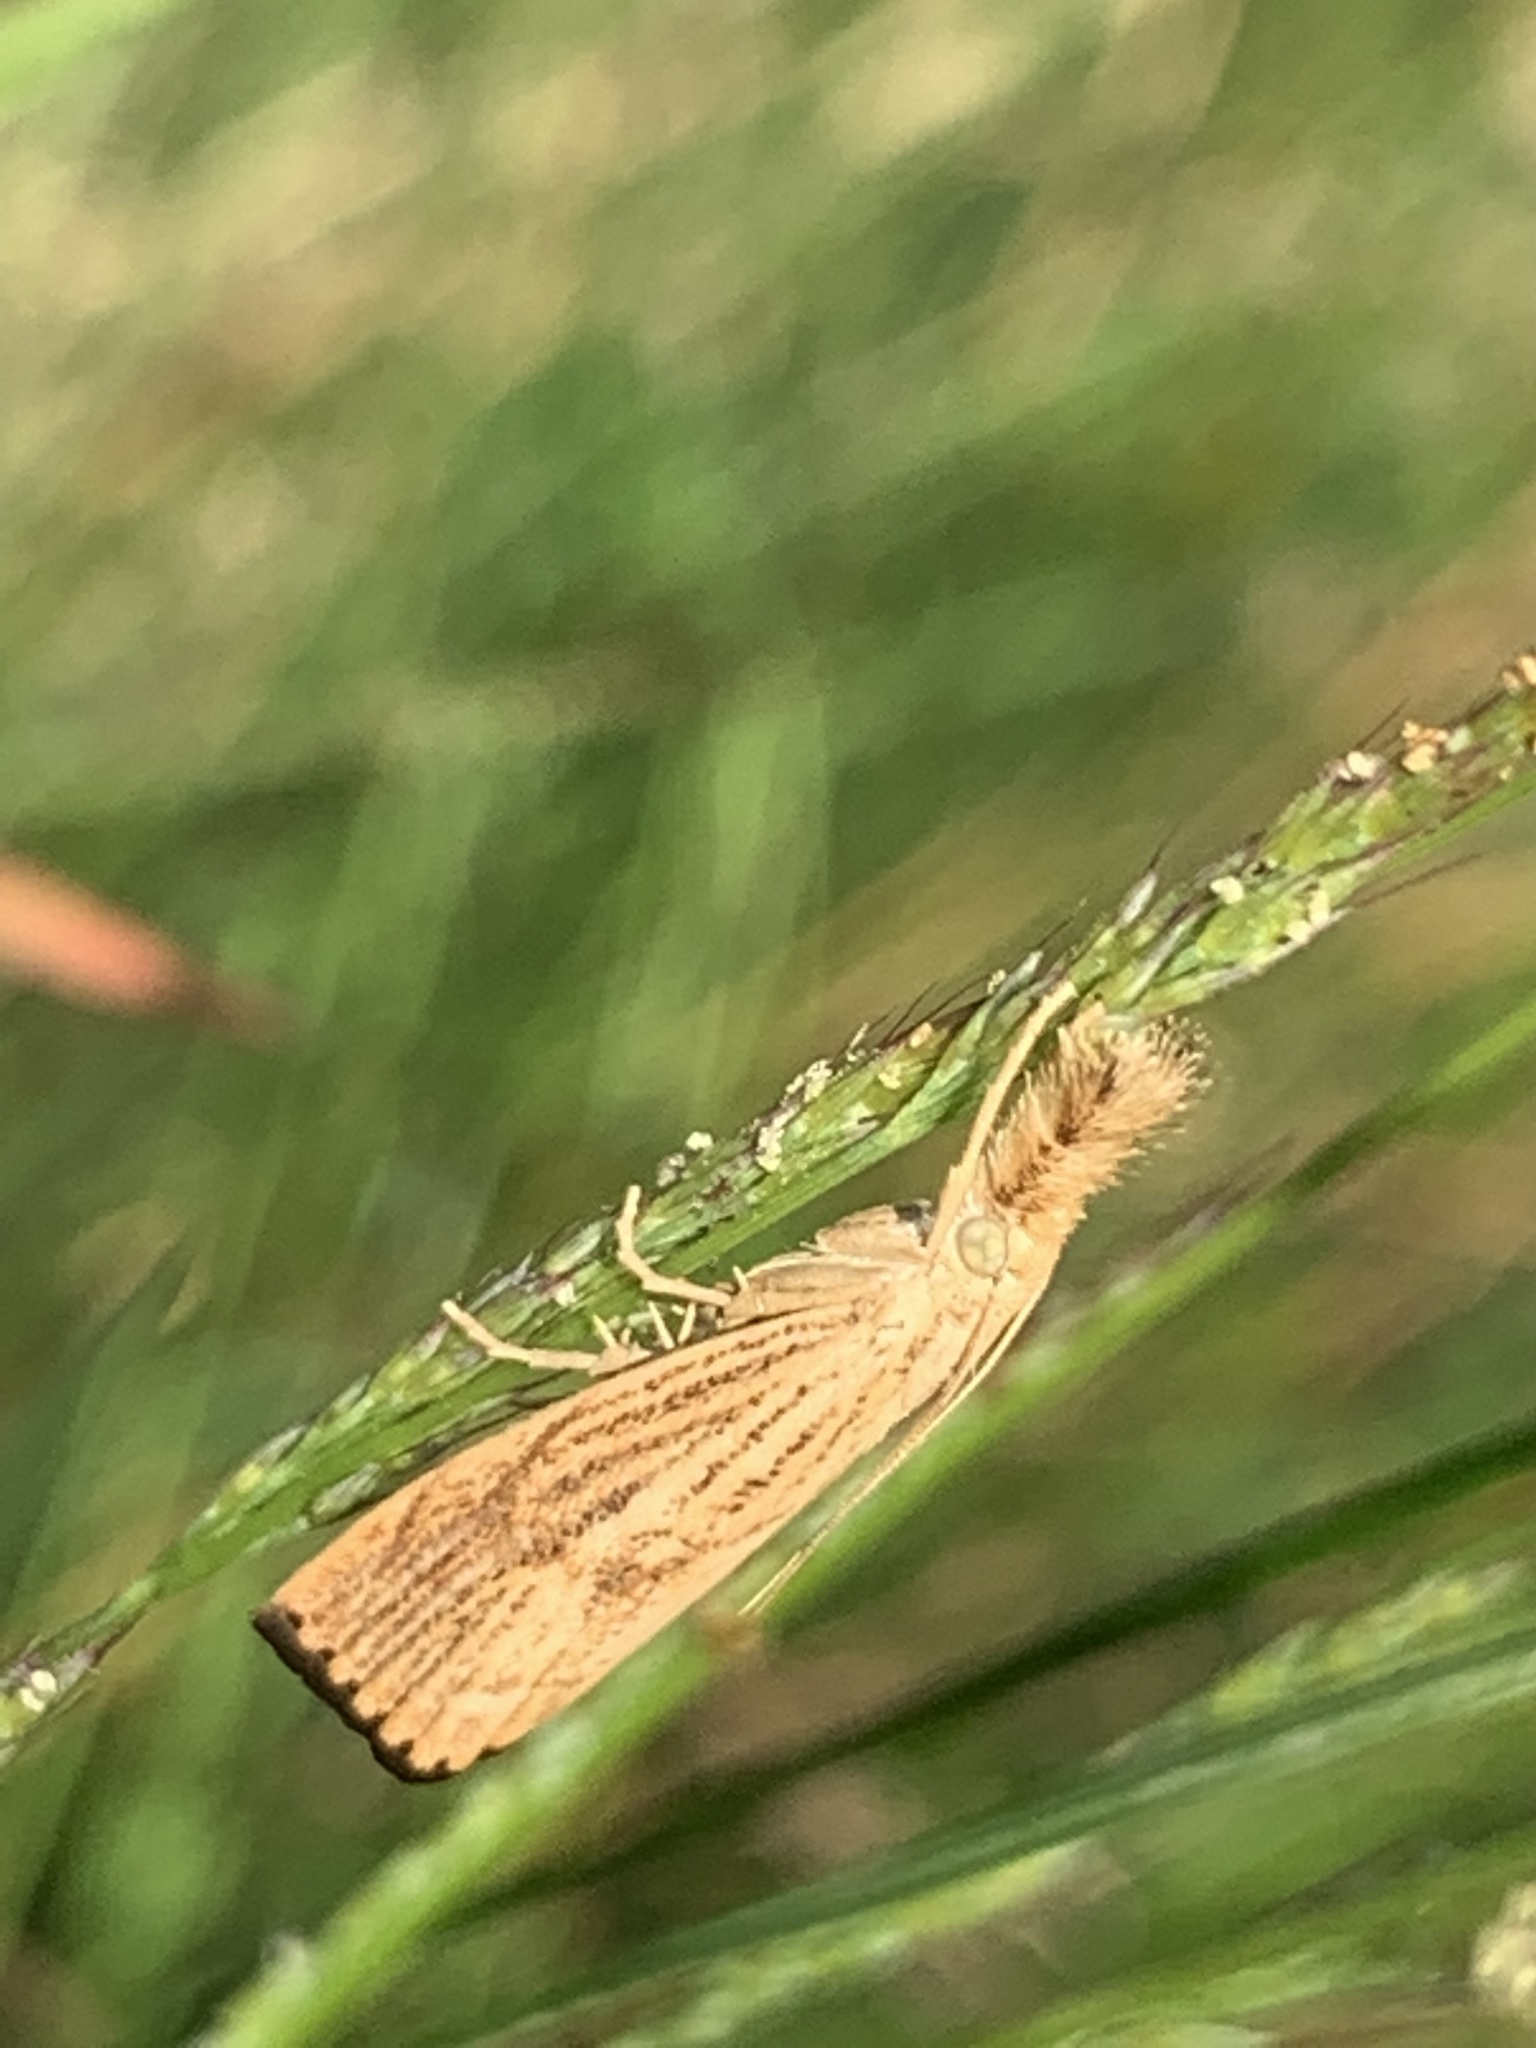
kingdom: Animalia
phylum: Arthropoda
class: Insecta
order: Lepidoptera
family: Crambidae
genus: Agriphila
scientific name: Agriphila ruricolellus
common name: Lesser vagabond sod webworm
